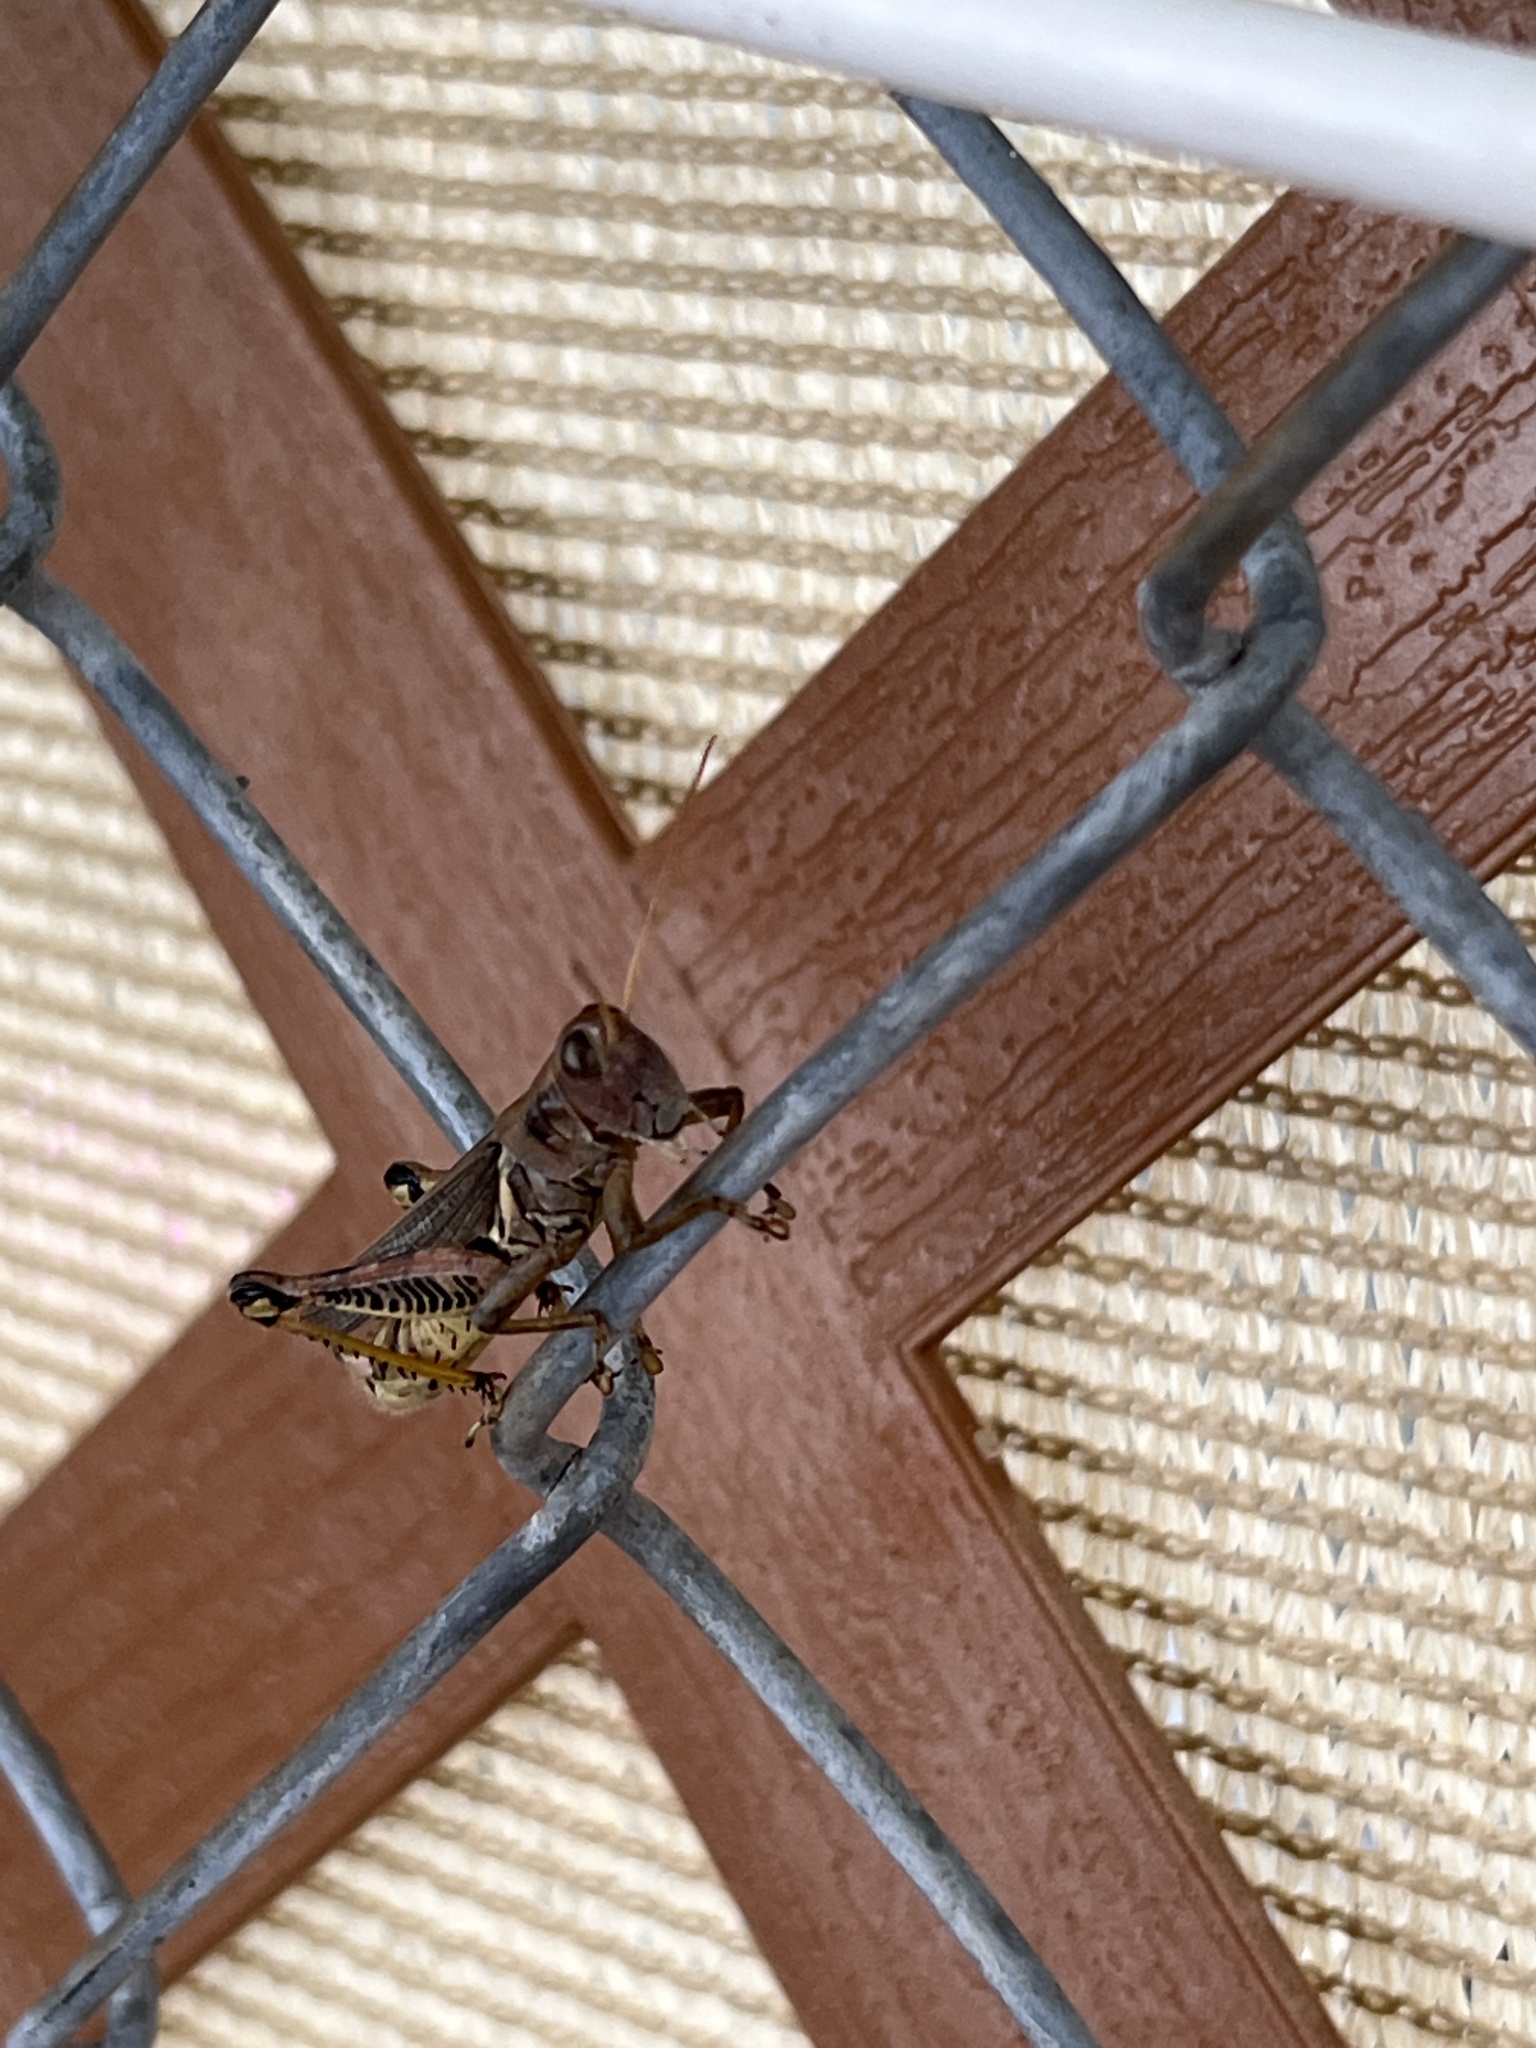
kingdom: Animalia
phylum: Arthropoda
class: Insecta
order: Orthoptera
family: Acrididae
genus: Melanoplus
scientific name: Melanoplus differentialis
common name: Differential grasshopper
